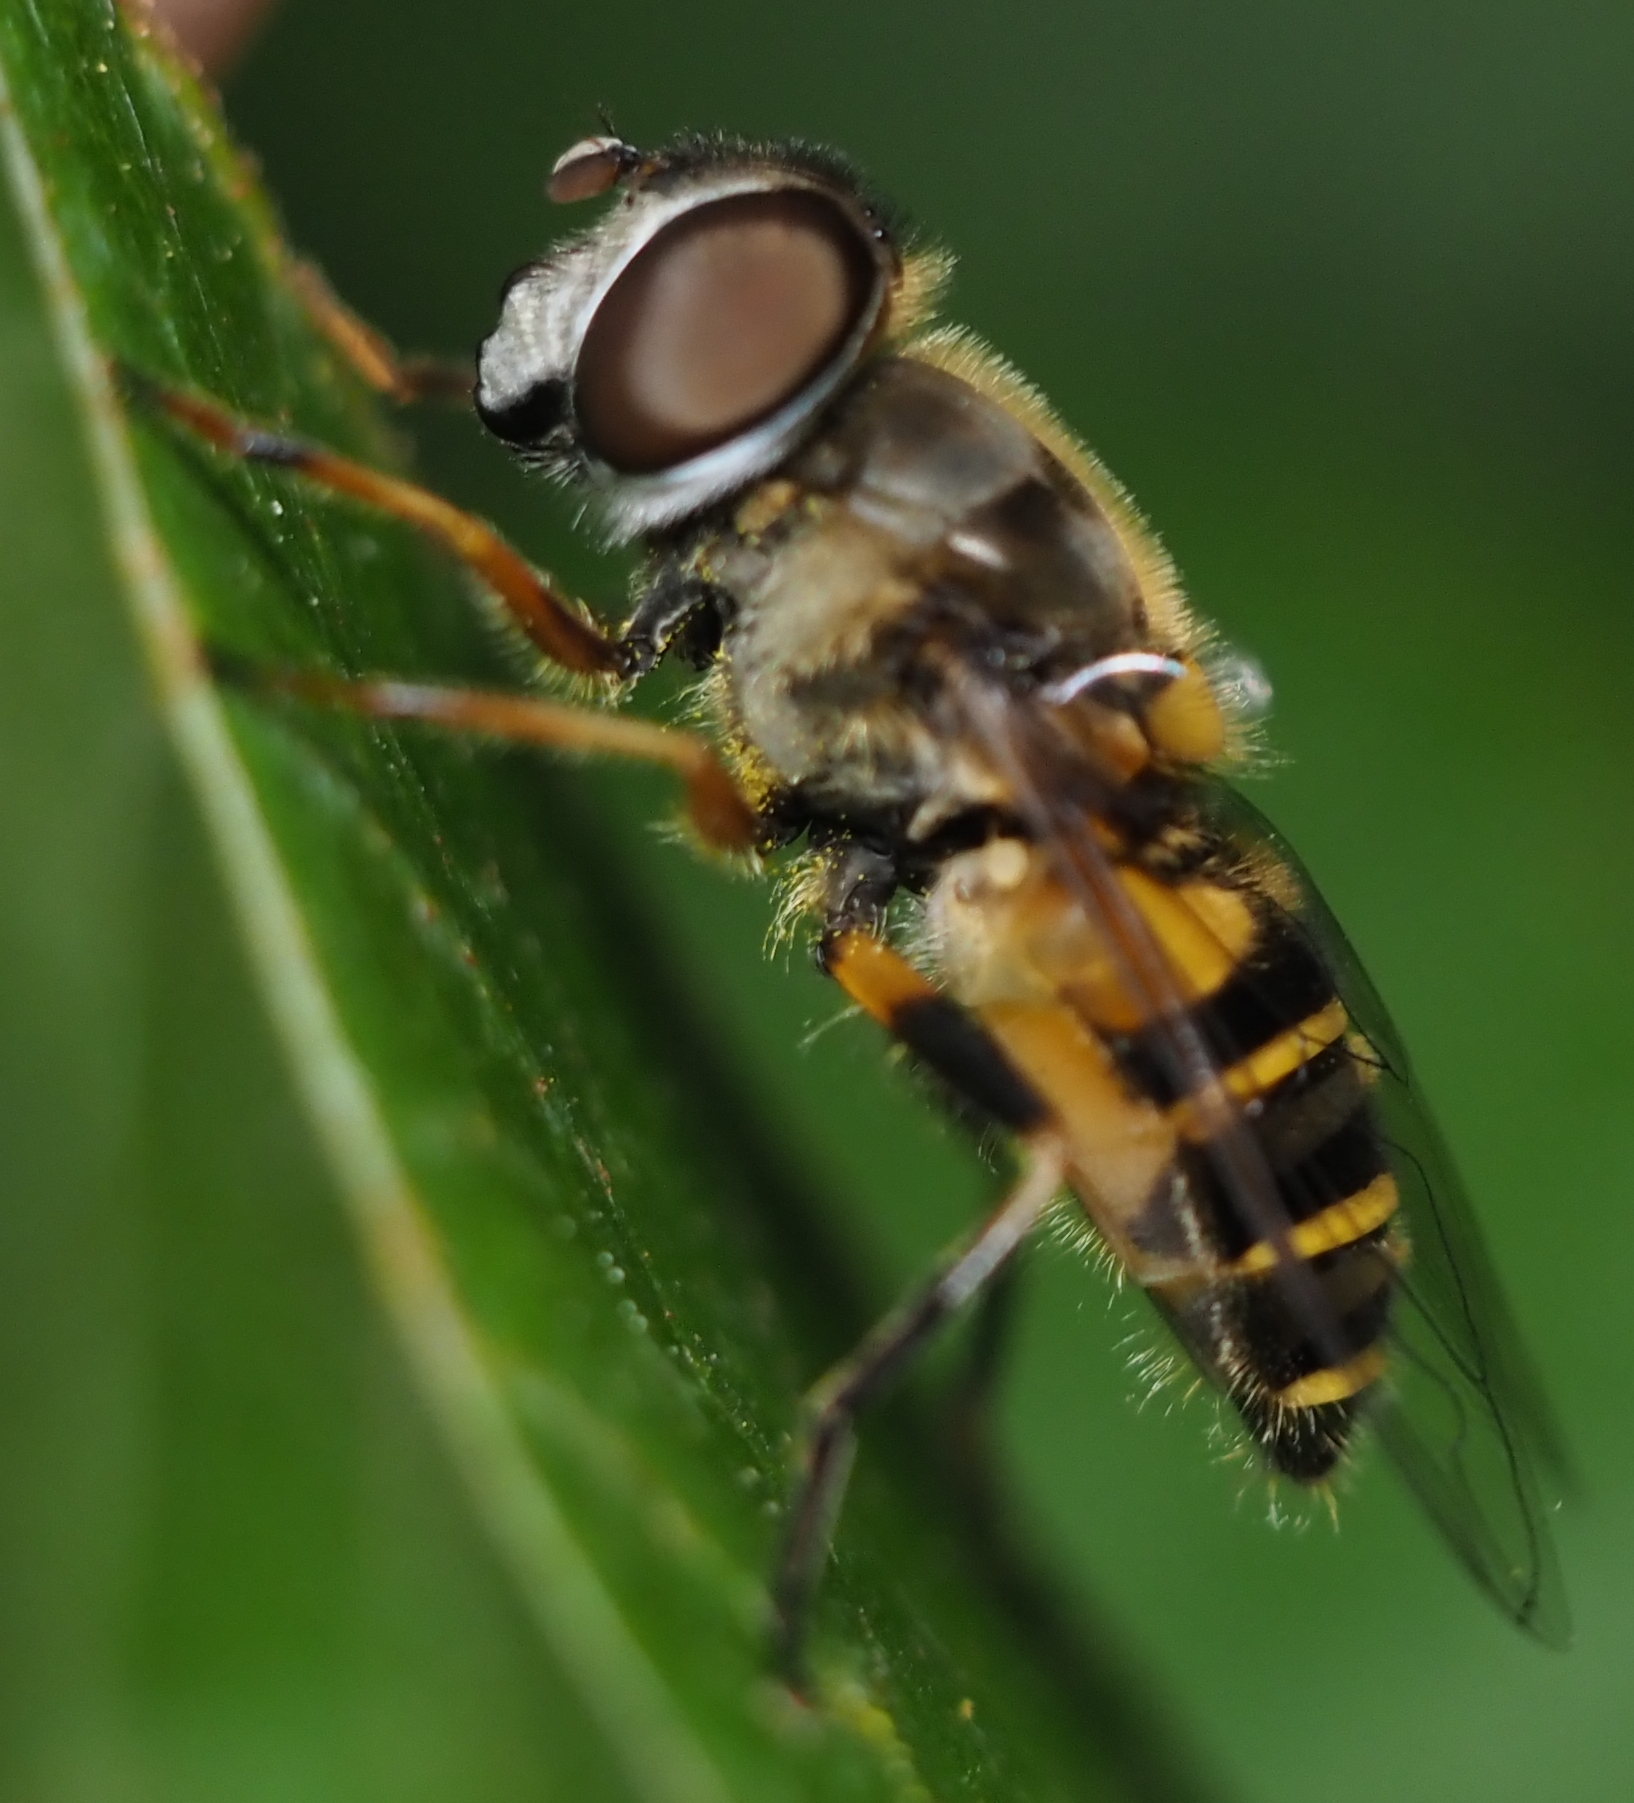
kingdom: Animalia
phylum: Arthropoda
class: Insecta
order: Diptera
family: Syrphidae
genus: Eristalis
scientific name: Eristalis transversa
